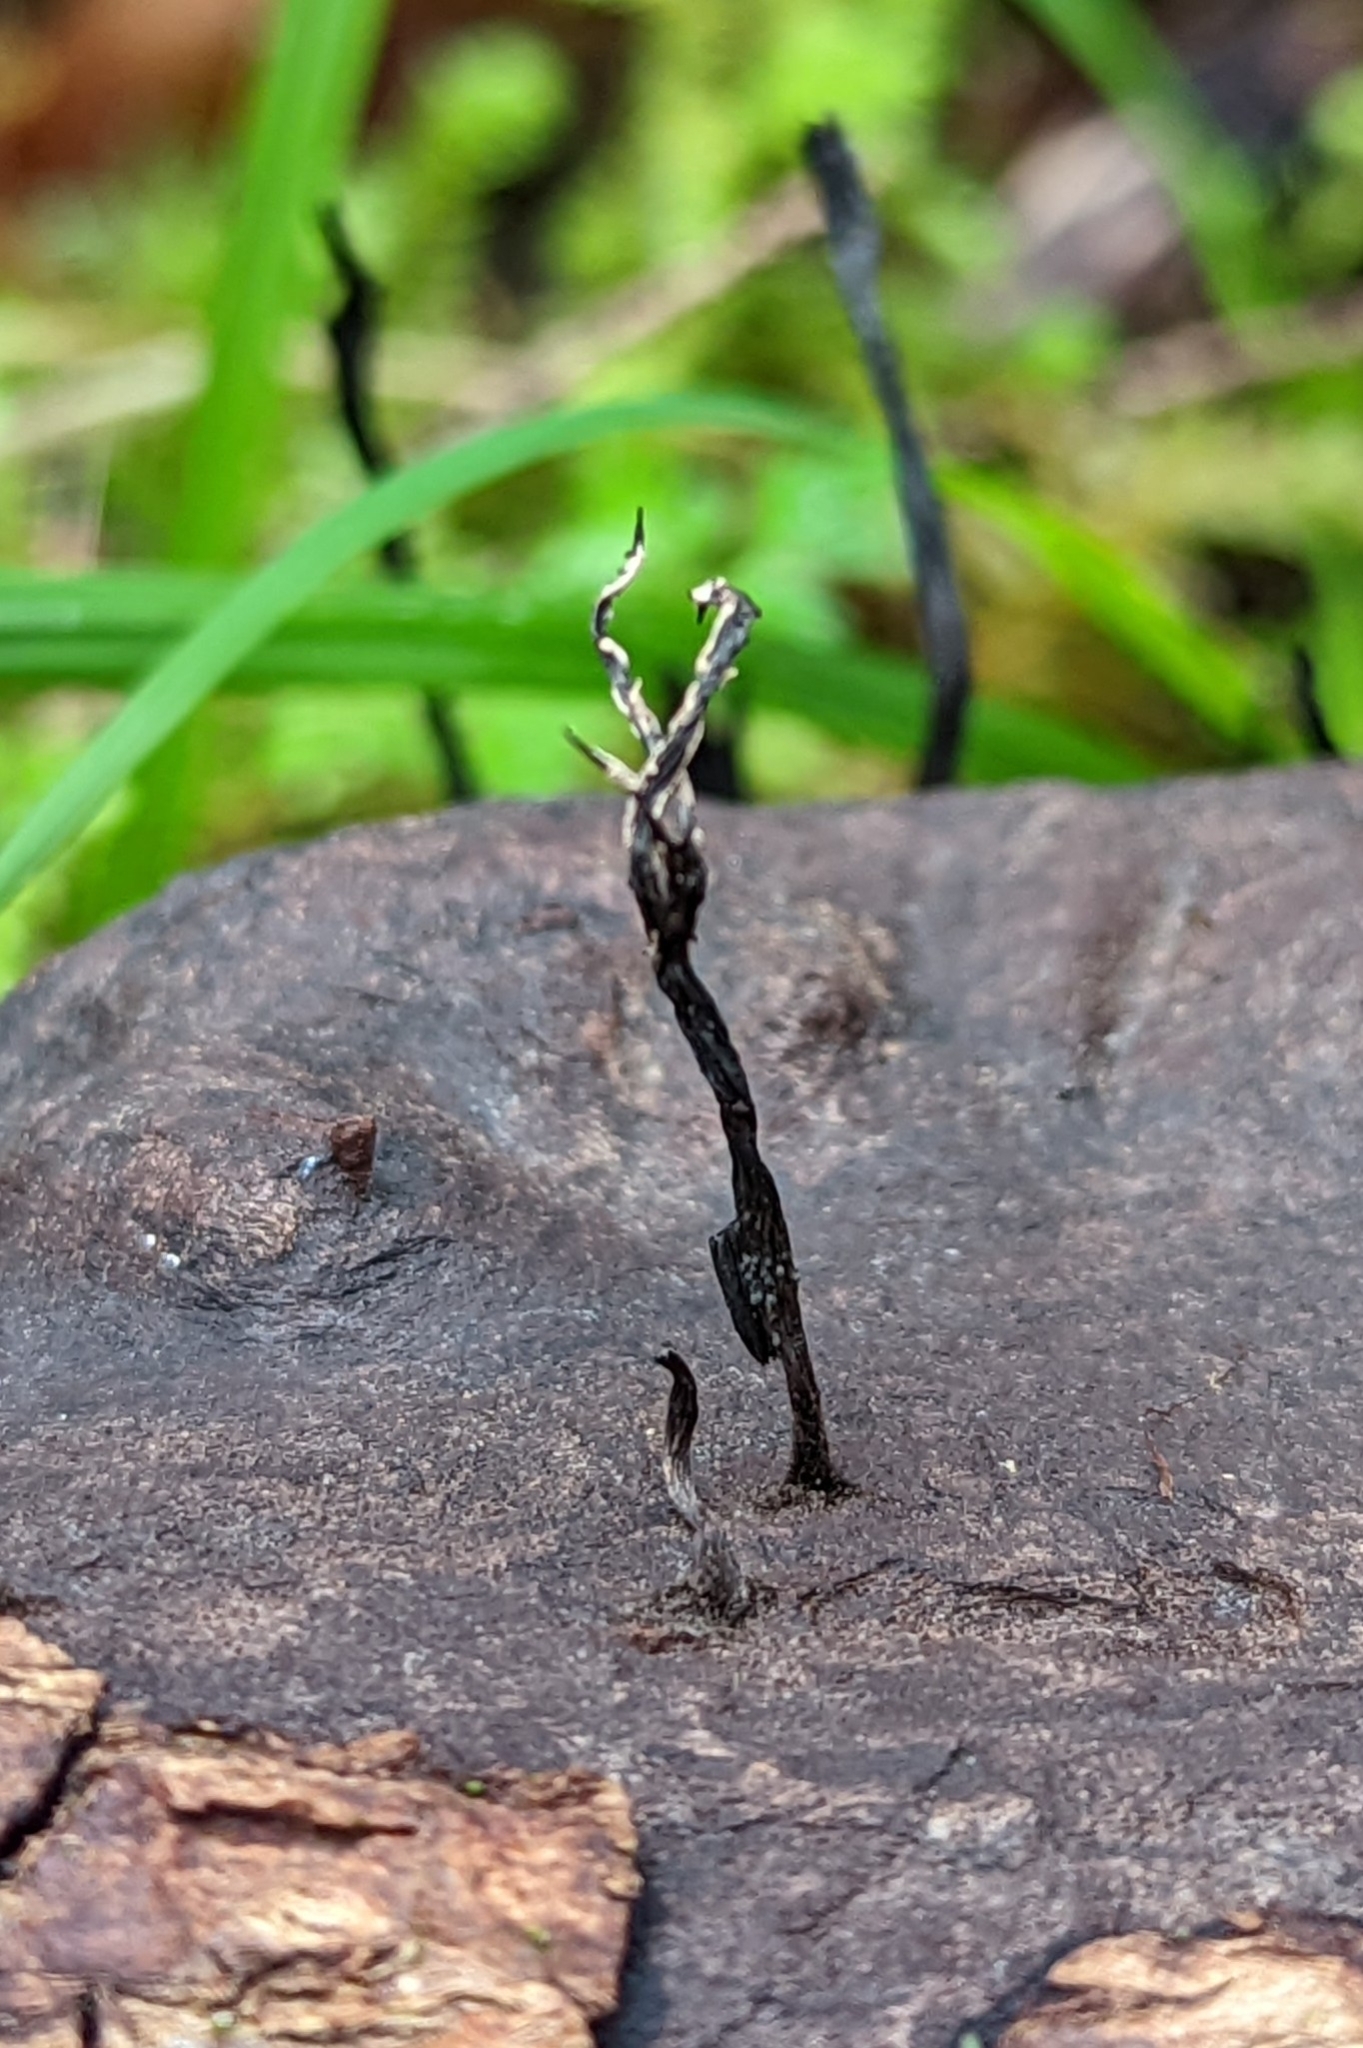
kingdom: Fungi
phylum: Ascomycota
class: Sordariomycetes
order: Xylariales
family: Xylariaceae
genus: Xylaria
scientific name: Xylaria hypoxylon
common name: Candle-snuff fungus
